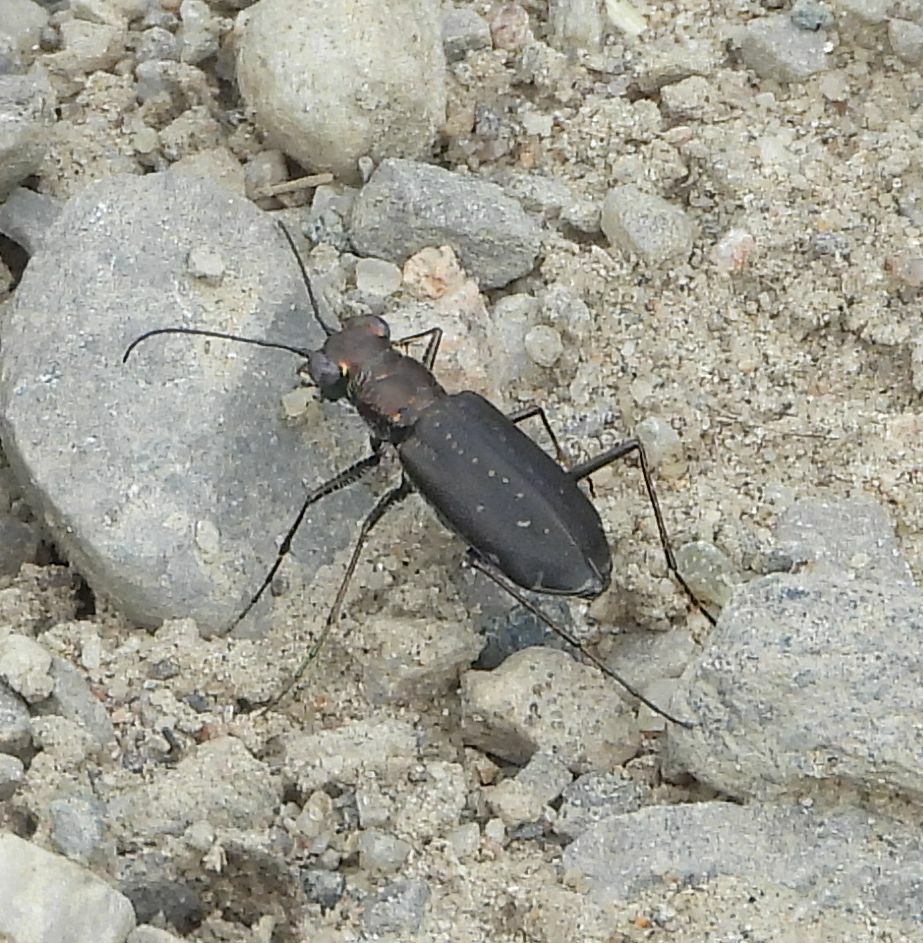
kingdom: Animalia
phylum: Arthropoda
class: Insecta
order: Coleoptera
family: Carabidae
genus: Cicindela
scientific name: Cicindela punctulata
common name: Punctured tiger beetle
